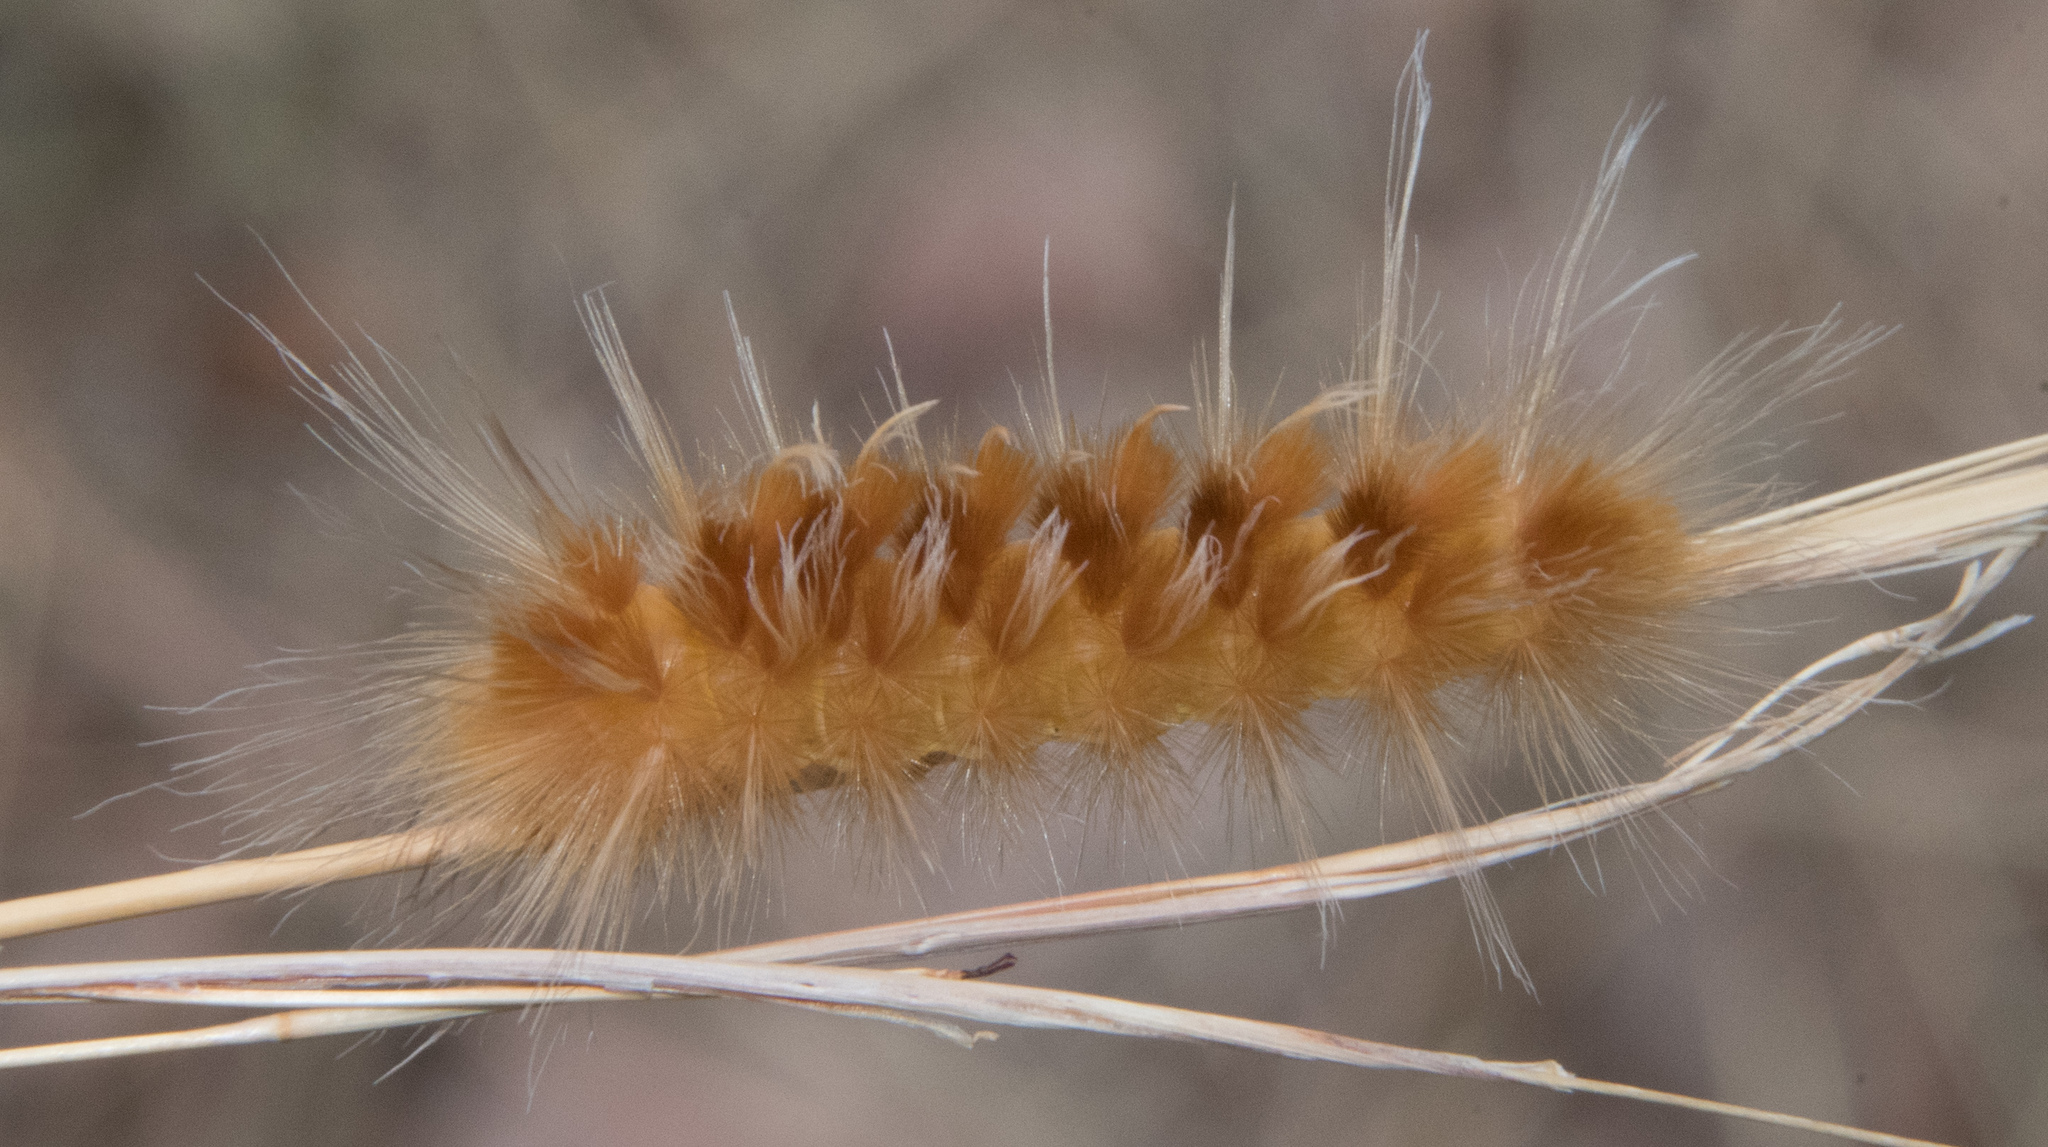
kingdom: Animalia
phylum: Arthropoda
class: Insecta
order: Lepidoptera
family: Erebidae
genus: Pygarctia
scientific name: Pygarctia roseicapitis
